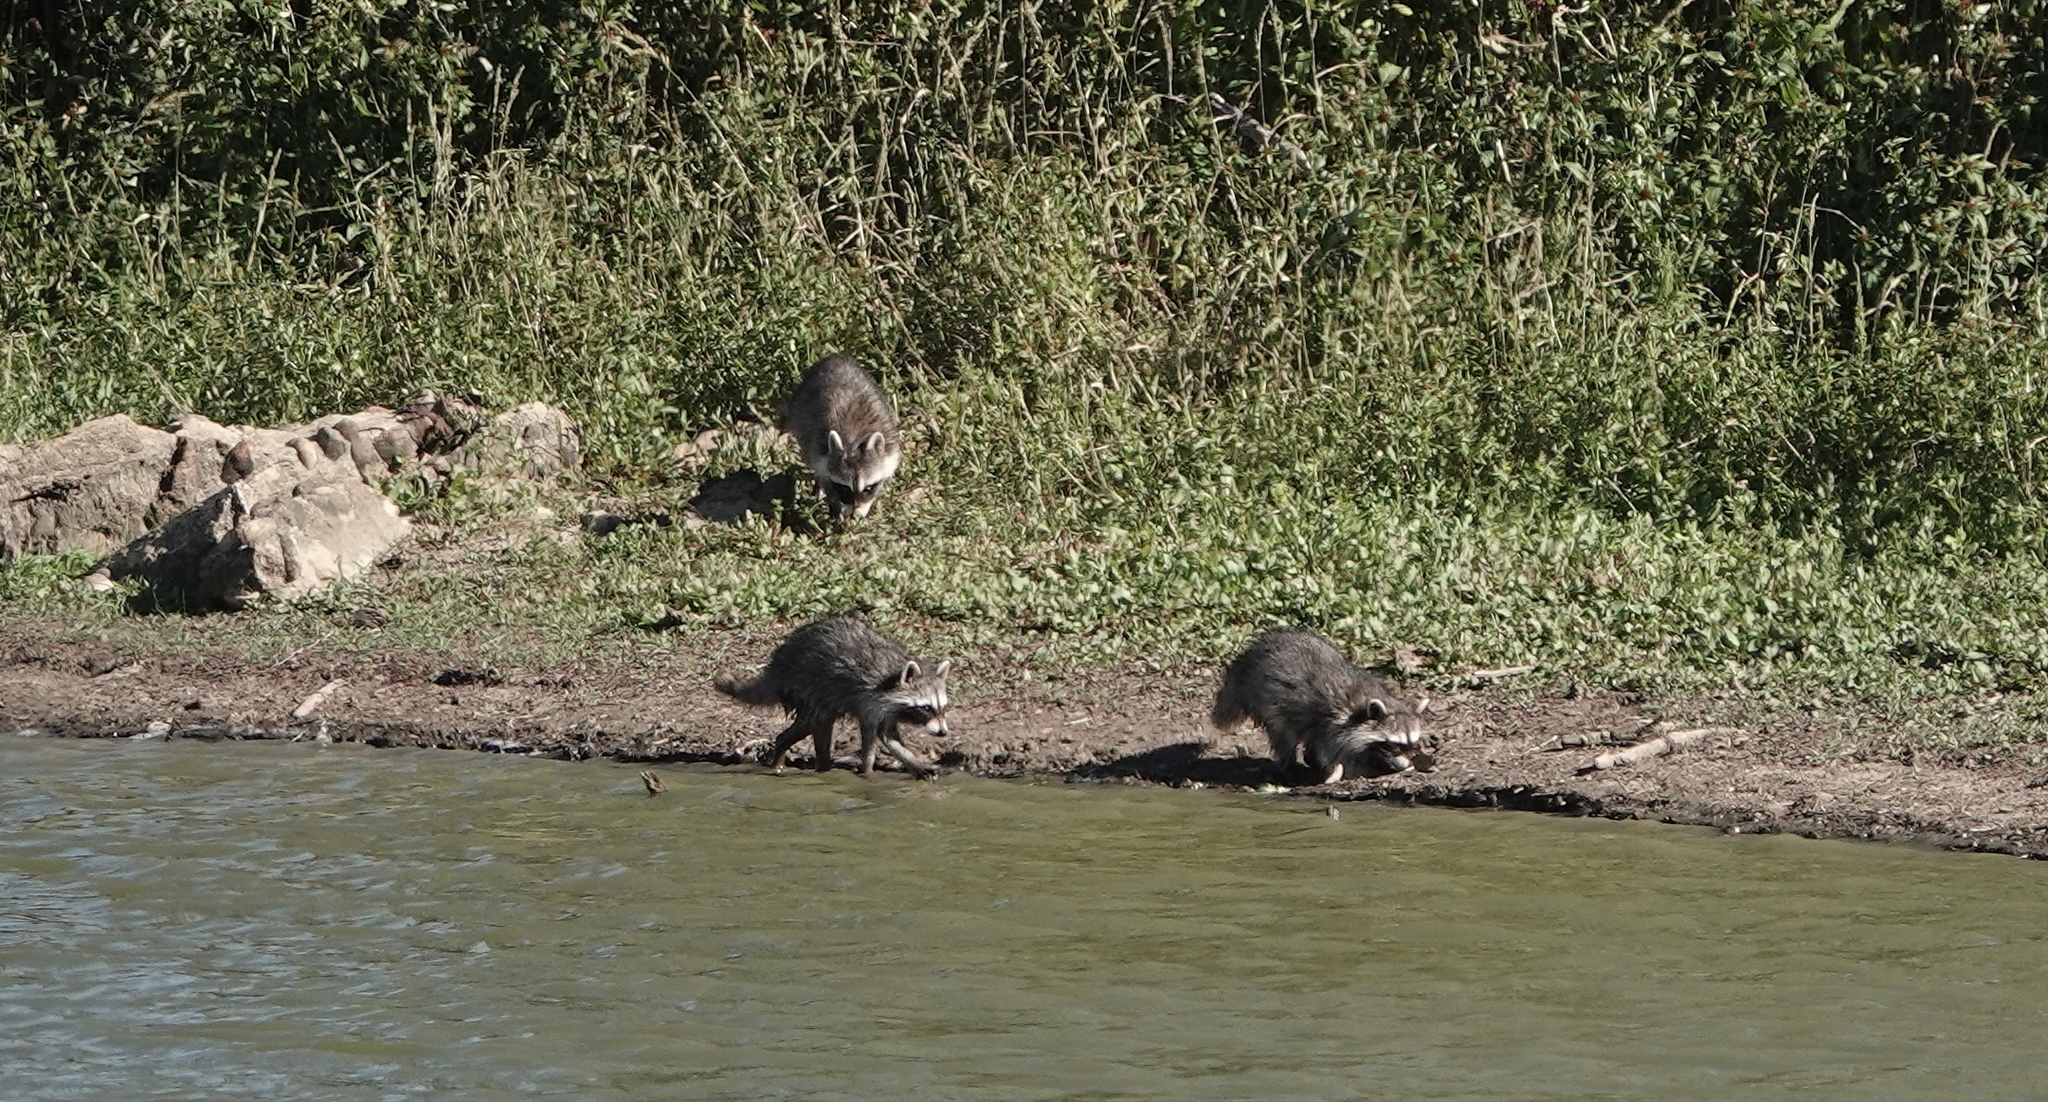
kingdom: Animalia
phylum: Chordata
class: Mammalia
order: Carnivora
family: Procyonidae
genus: Procyon
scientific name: Procyon lotor
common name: Raccoon
